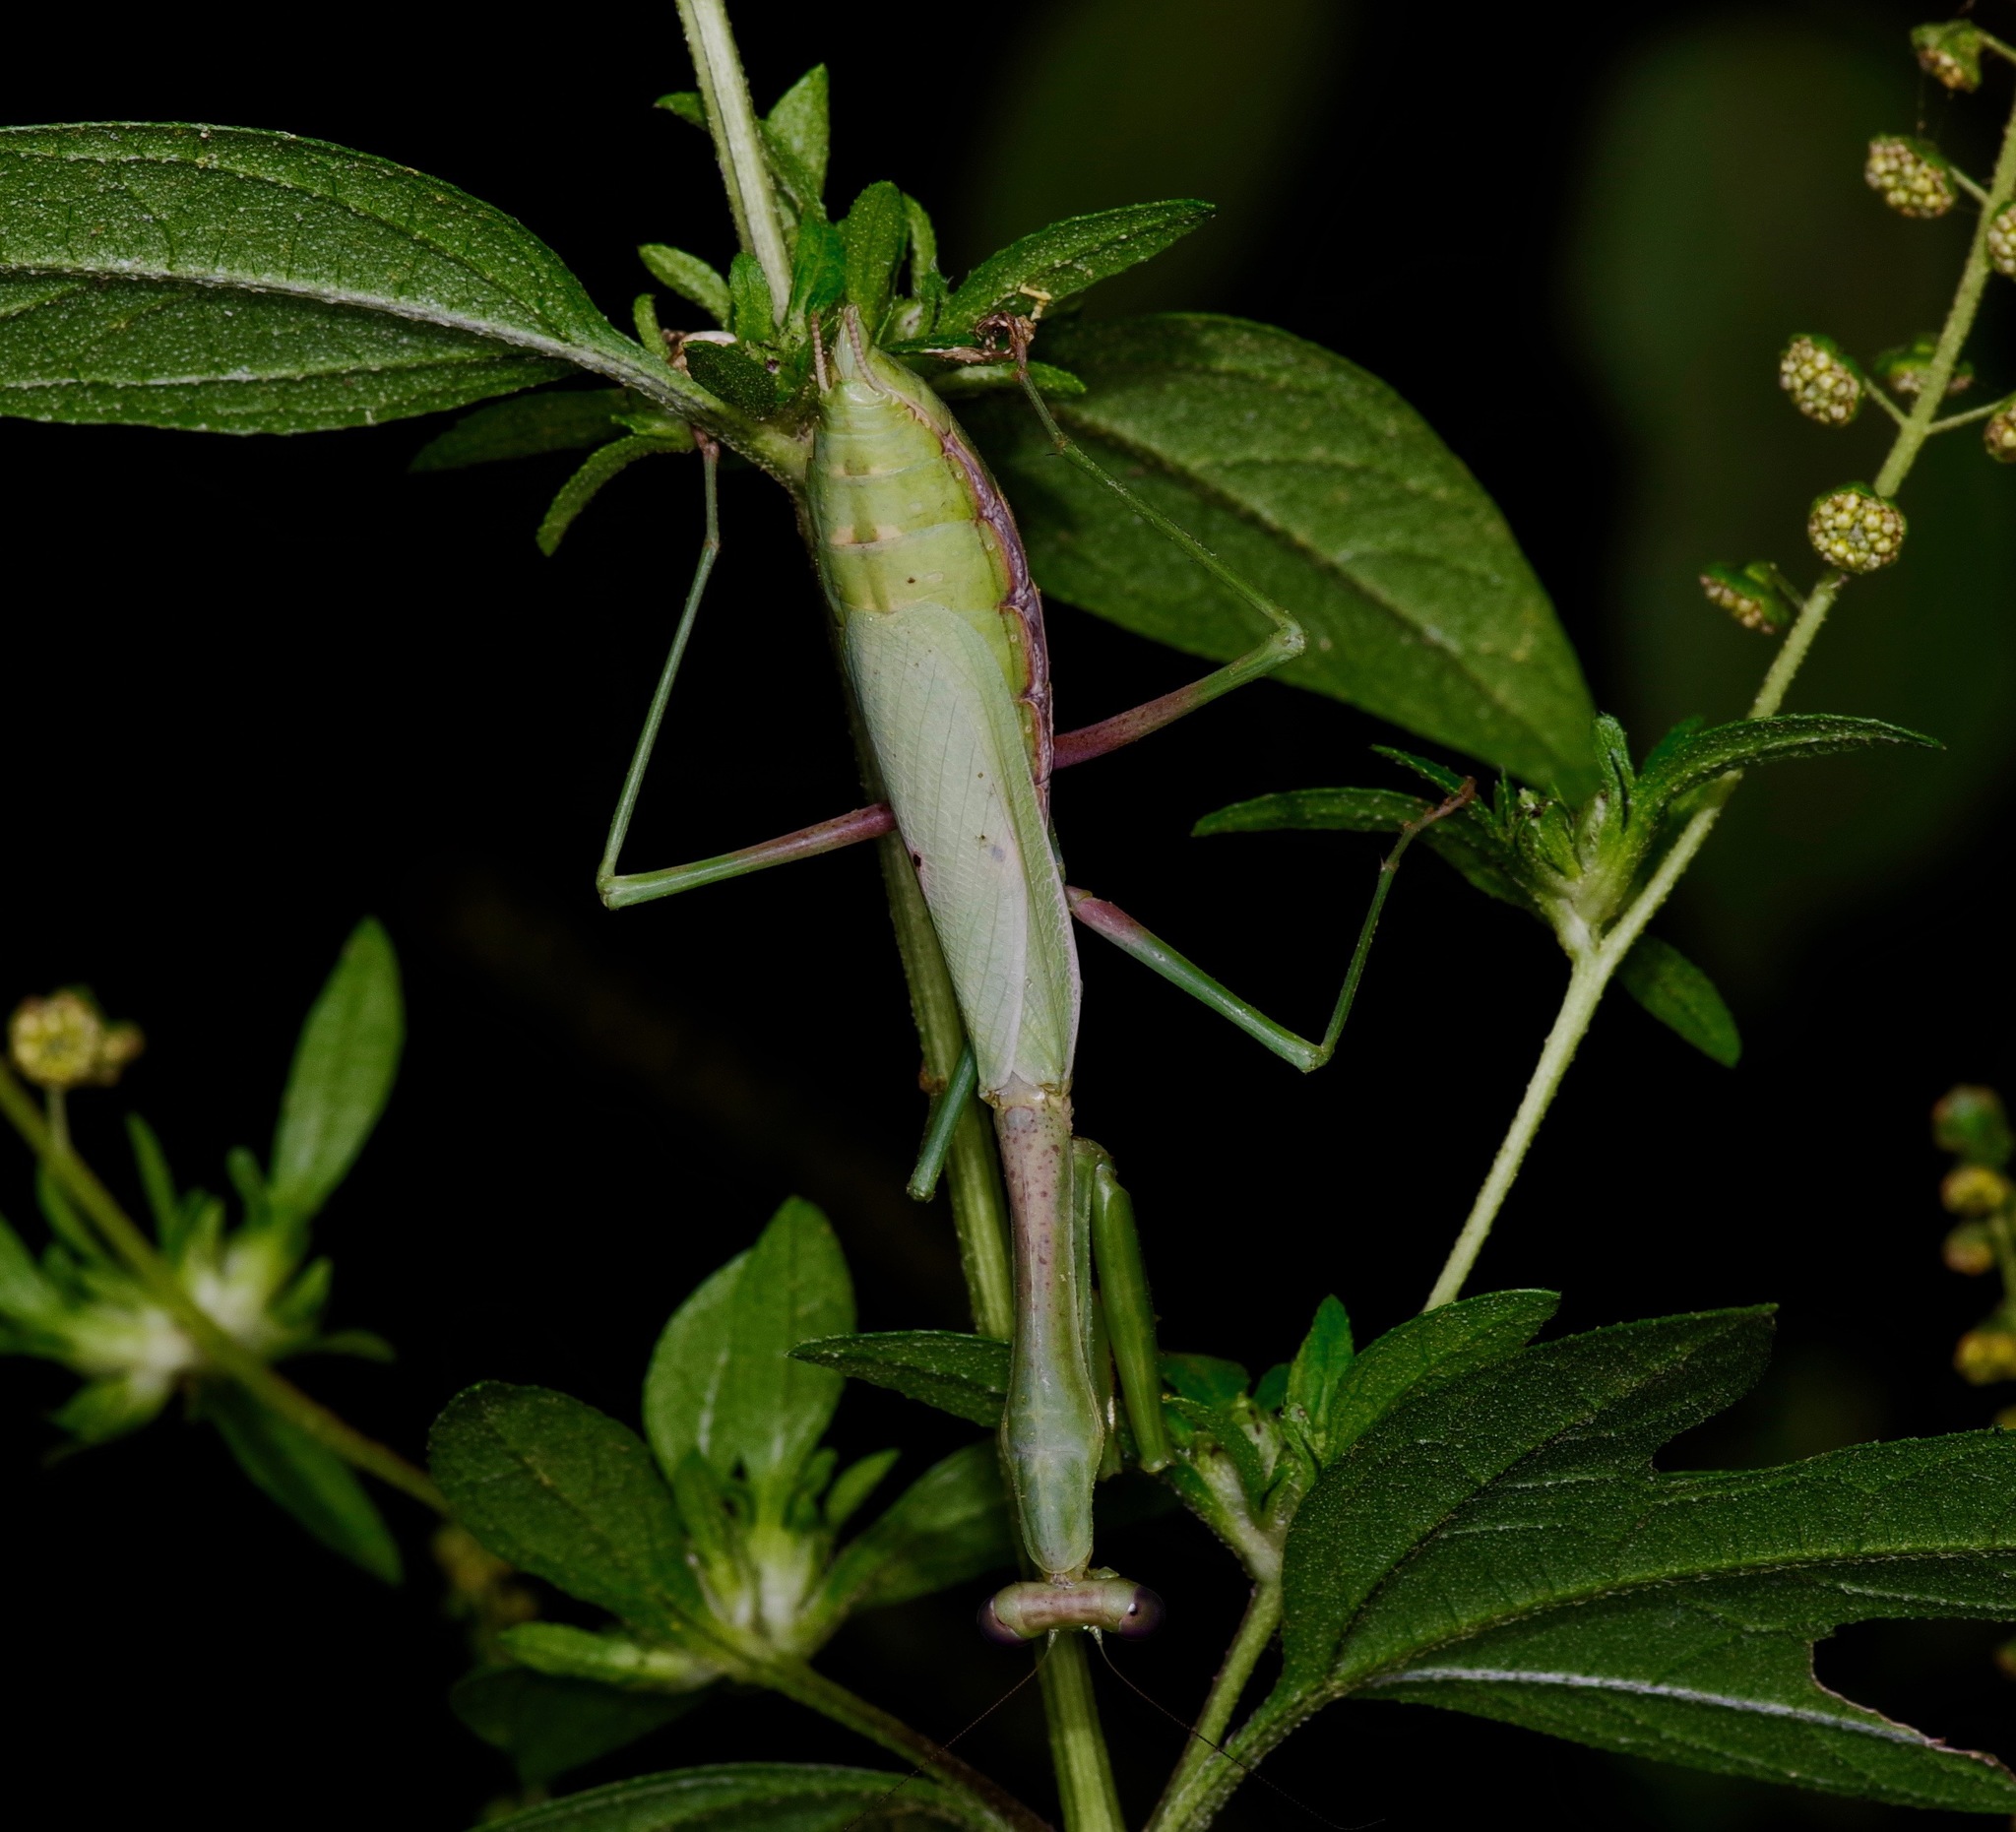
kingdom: Animalia
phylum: Arthropoda
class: Insecta
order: Mantodea
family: Mantidae
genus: Stagmomantis
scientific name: Stagmomantis carolina
